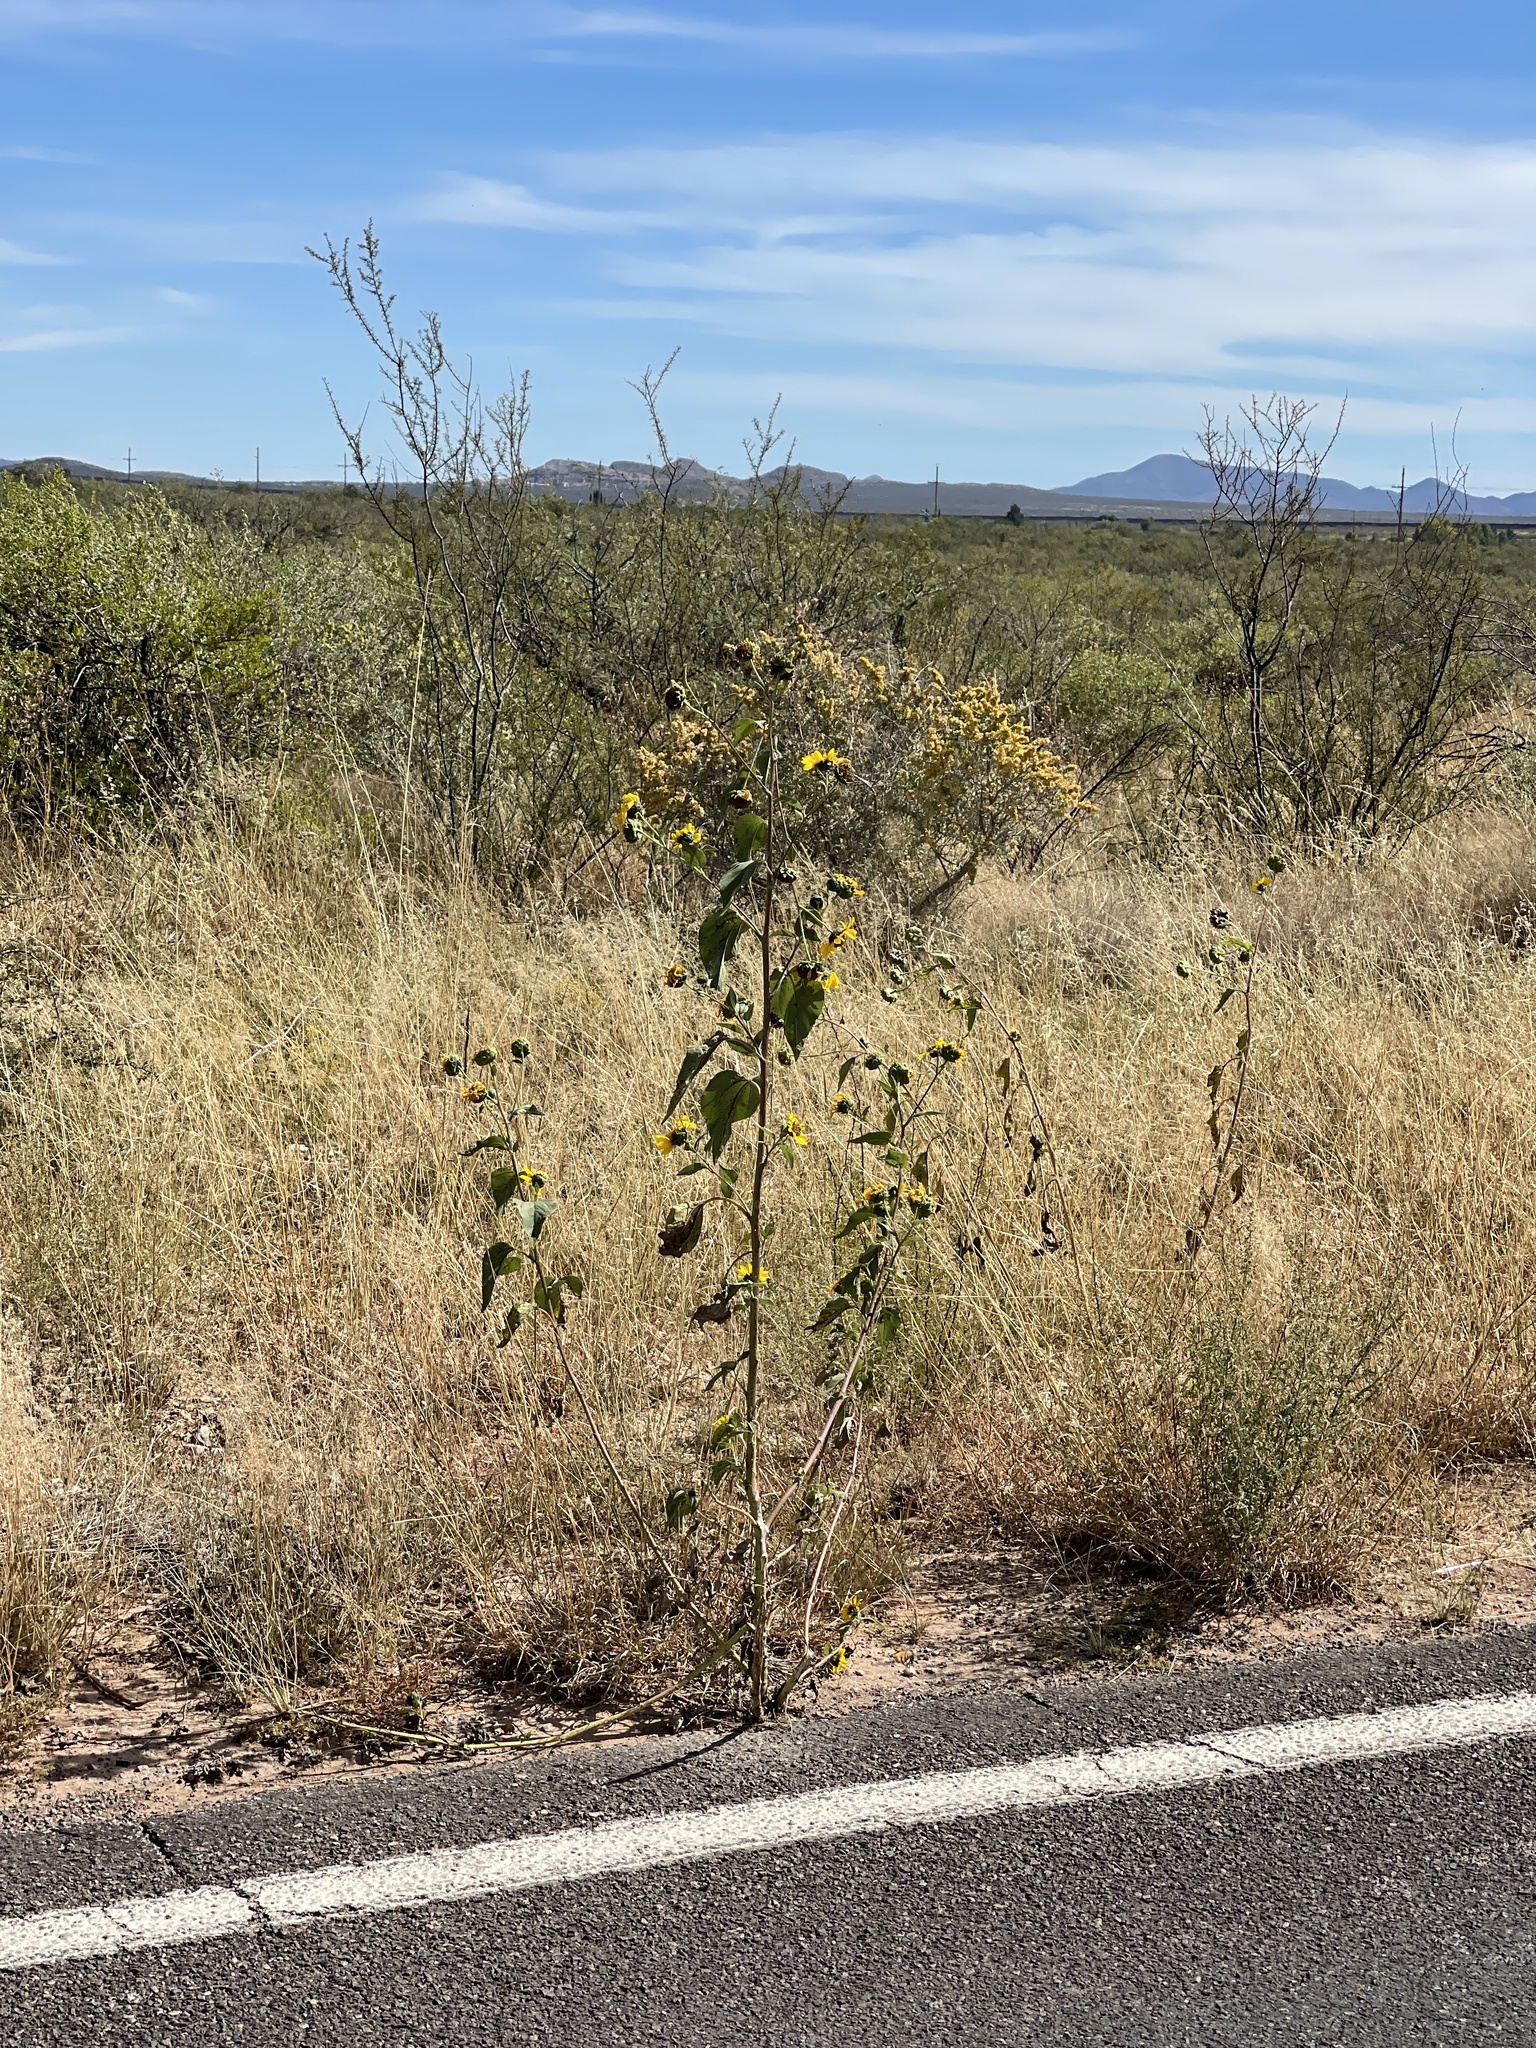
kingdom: Plantae
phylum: Tracheophyta
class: Magnoliopsida
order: Asterales
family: Asteraceae
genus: Helianthus
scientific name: Helianthus annuus
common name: Sunflower
